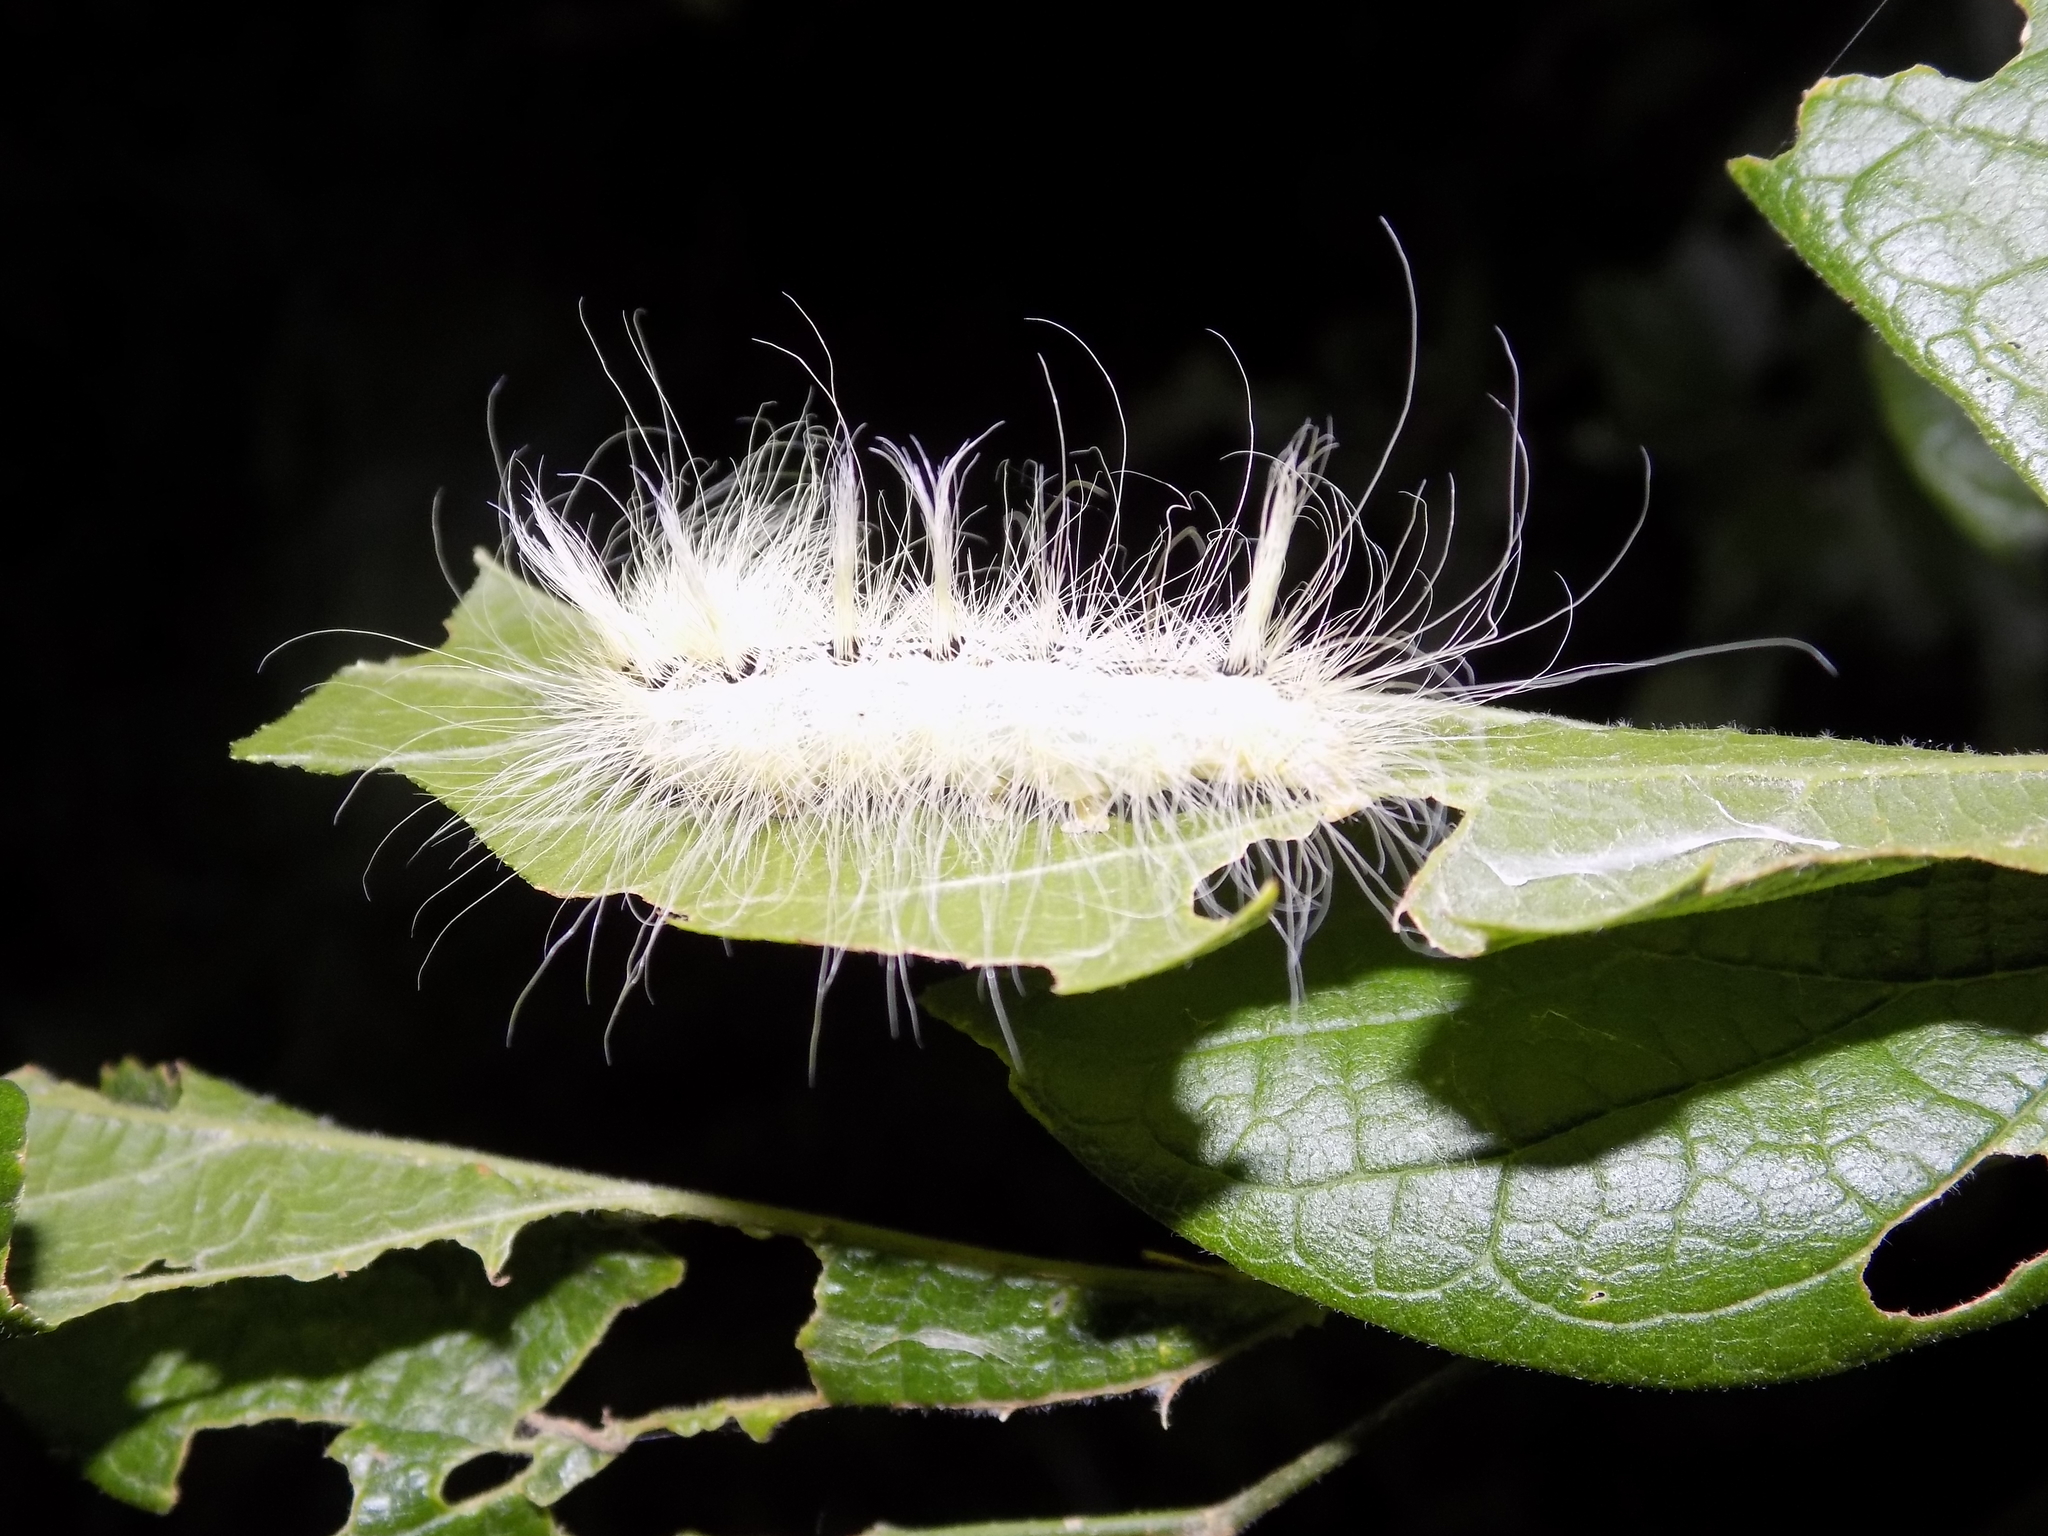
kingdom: Animalia
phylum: Arthropoda
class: Insecta
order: Lepidoptera
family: Noctuidae
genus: Acronicta
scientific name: Acronicta rubricoma
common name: Hackberry dagger
